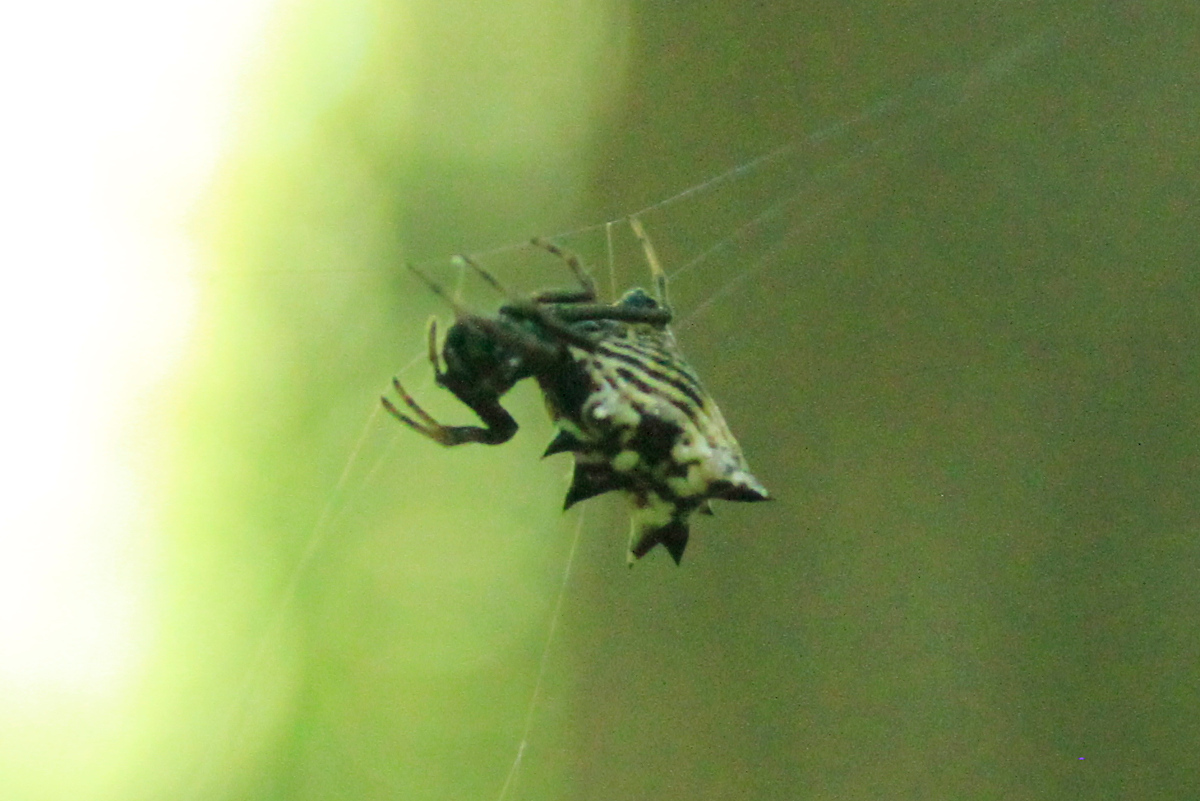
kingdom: Animalia
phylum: Arthropoda
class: Arachnida
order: Araneae
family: Araneidae
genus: Micrathena
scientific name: Micrathena gracilis
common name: Orb weavers
